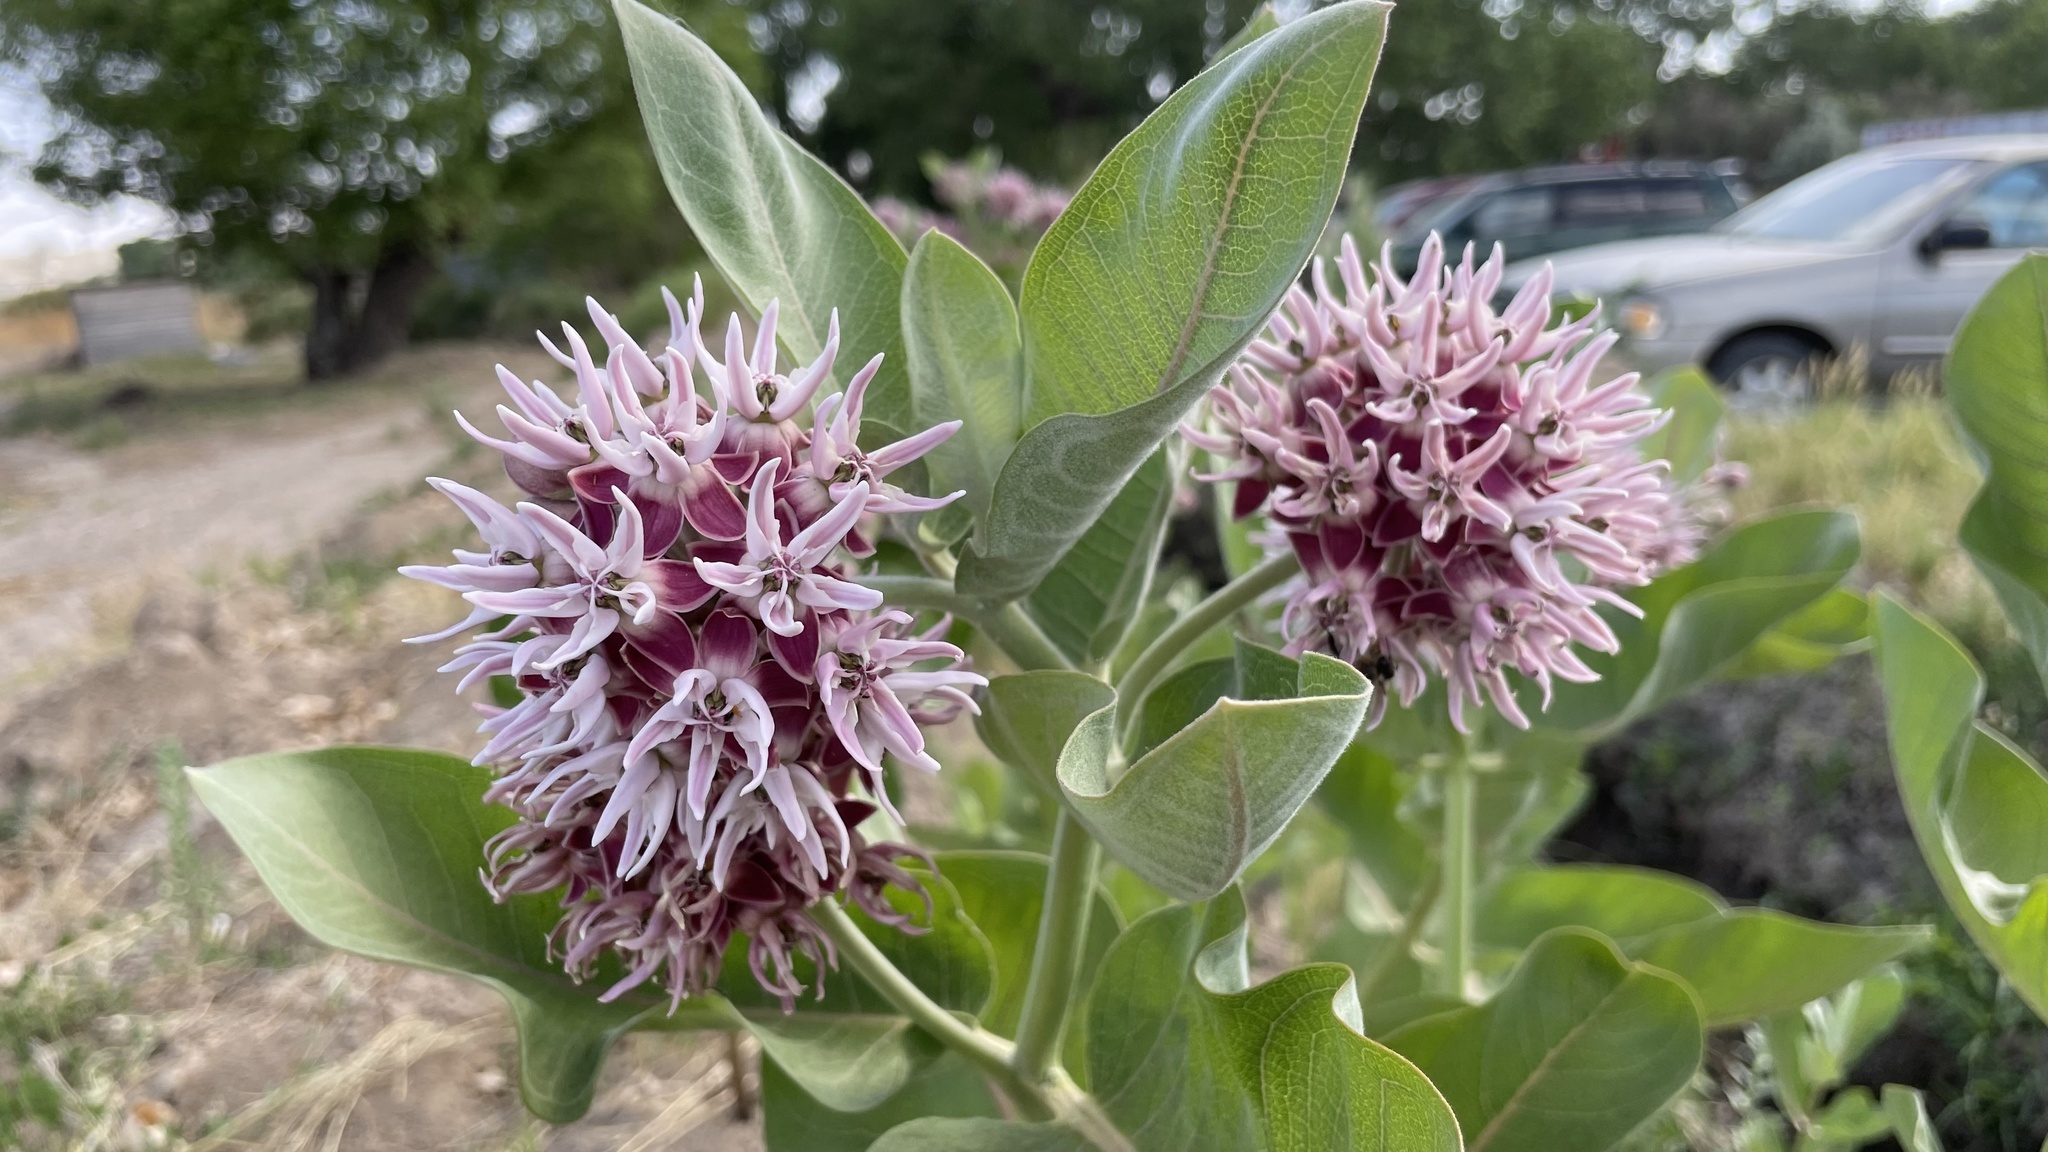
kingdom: Plantae
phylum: Tracheophyta
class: Magnoliopsida
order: Gentianales
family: Apocynaceae
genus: Asclepias
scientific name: Asclepias speciosa
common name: Showy milkweed
